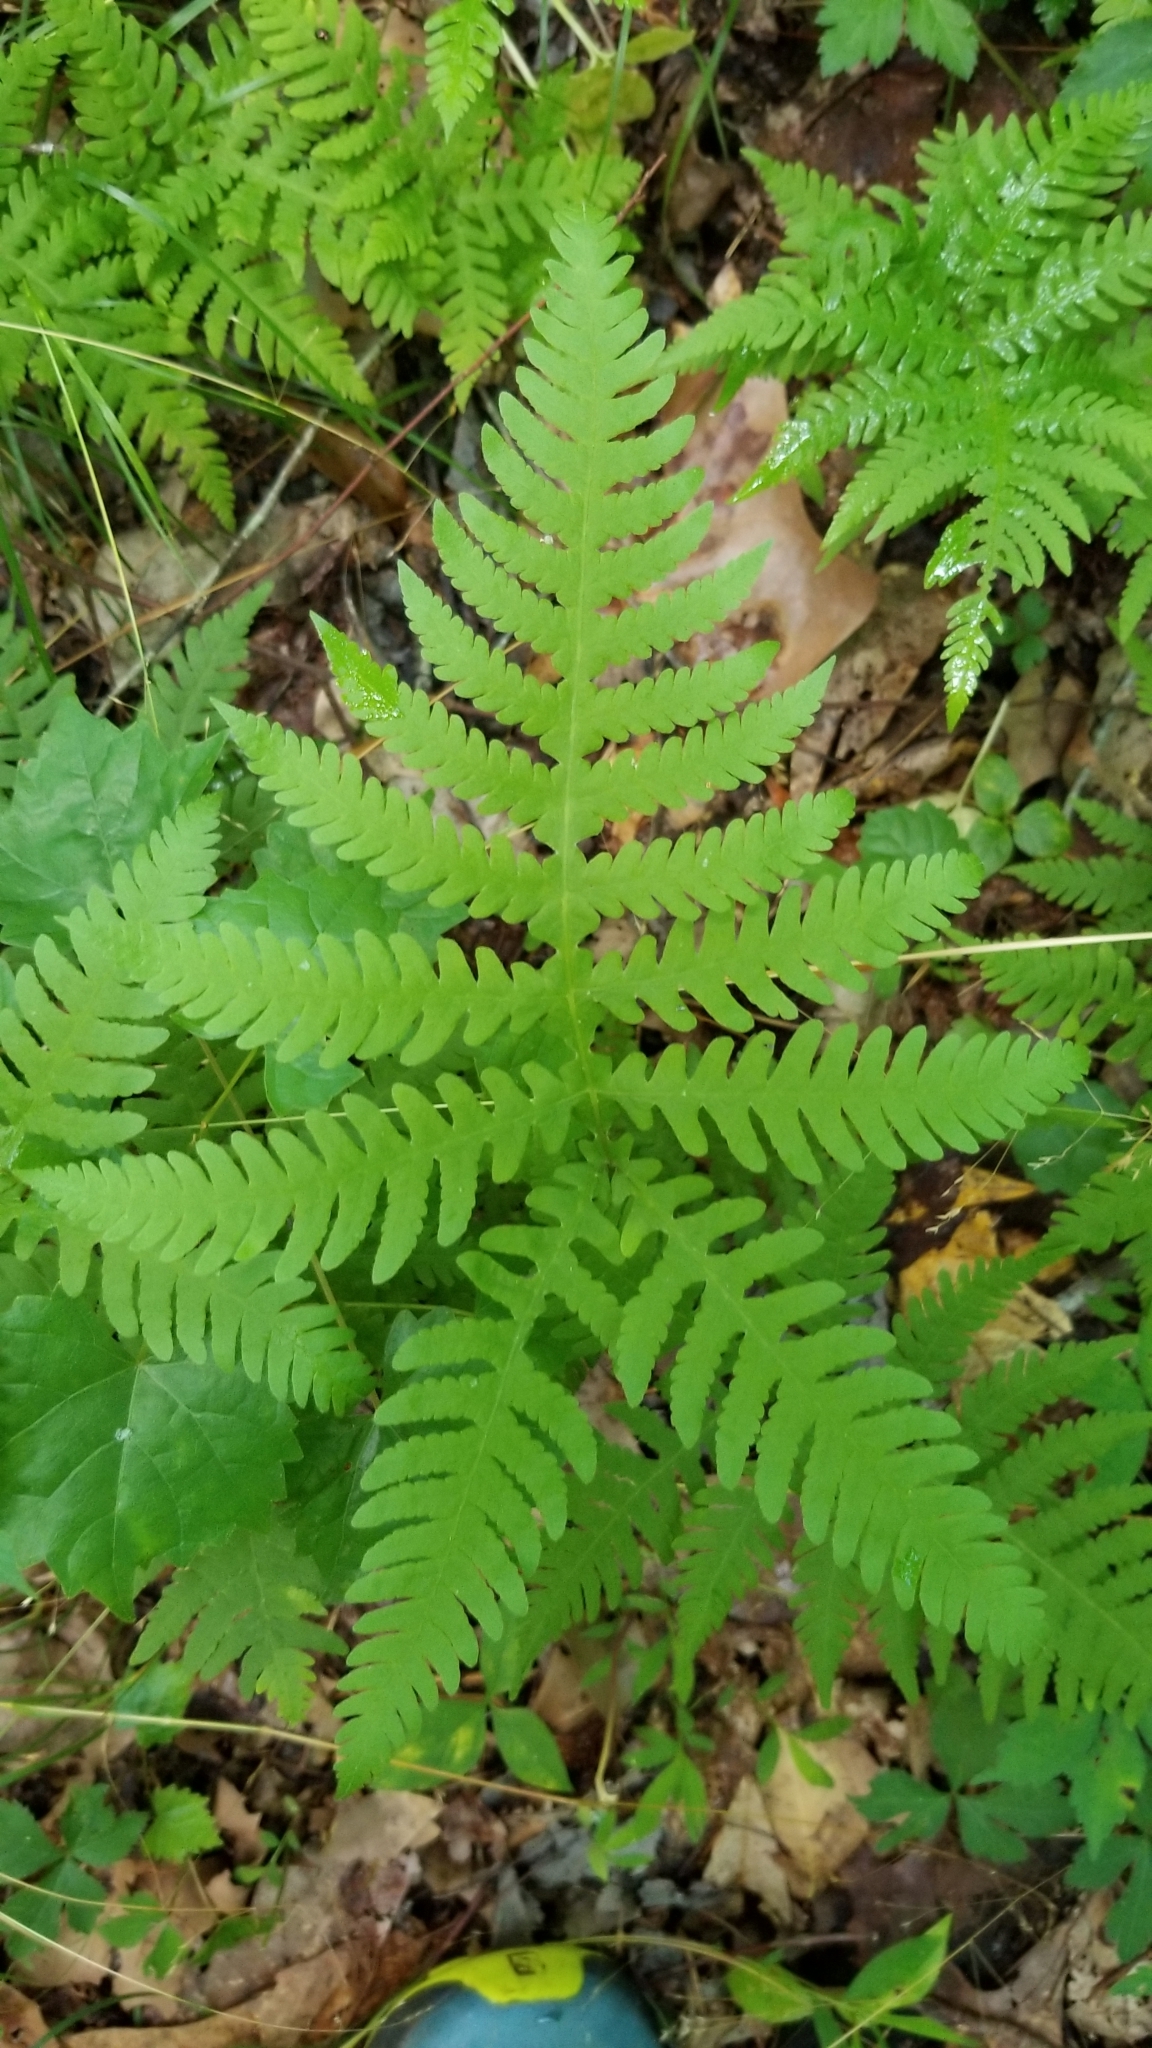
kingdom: Plantae
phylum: Tracheophyta
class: Polypodiopsida
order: Polypodiales
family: Thelypteridaceae
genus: Phegopteris
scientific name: Phegopteris hexagonoptera
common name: Broad beech fern
